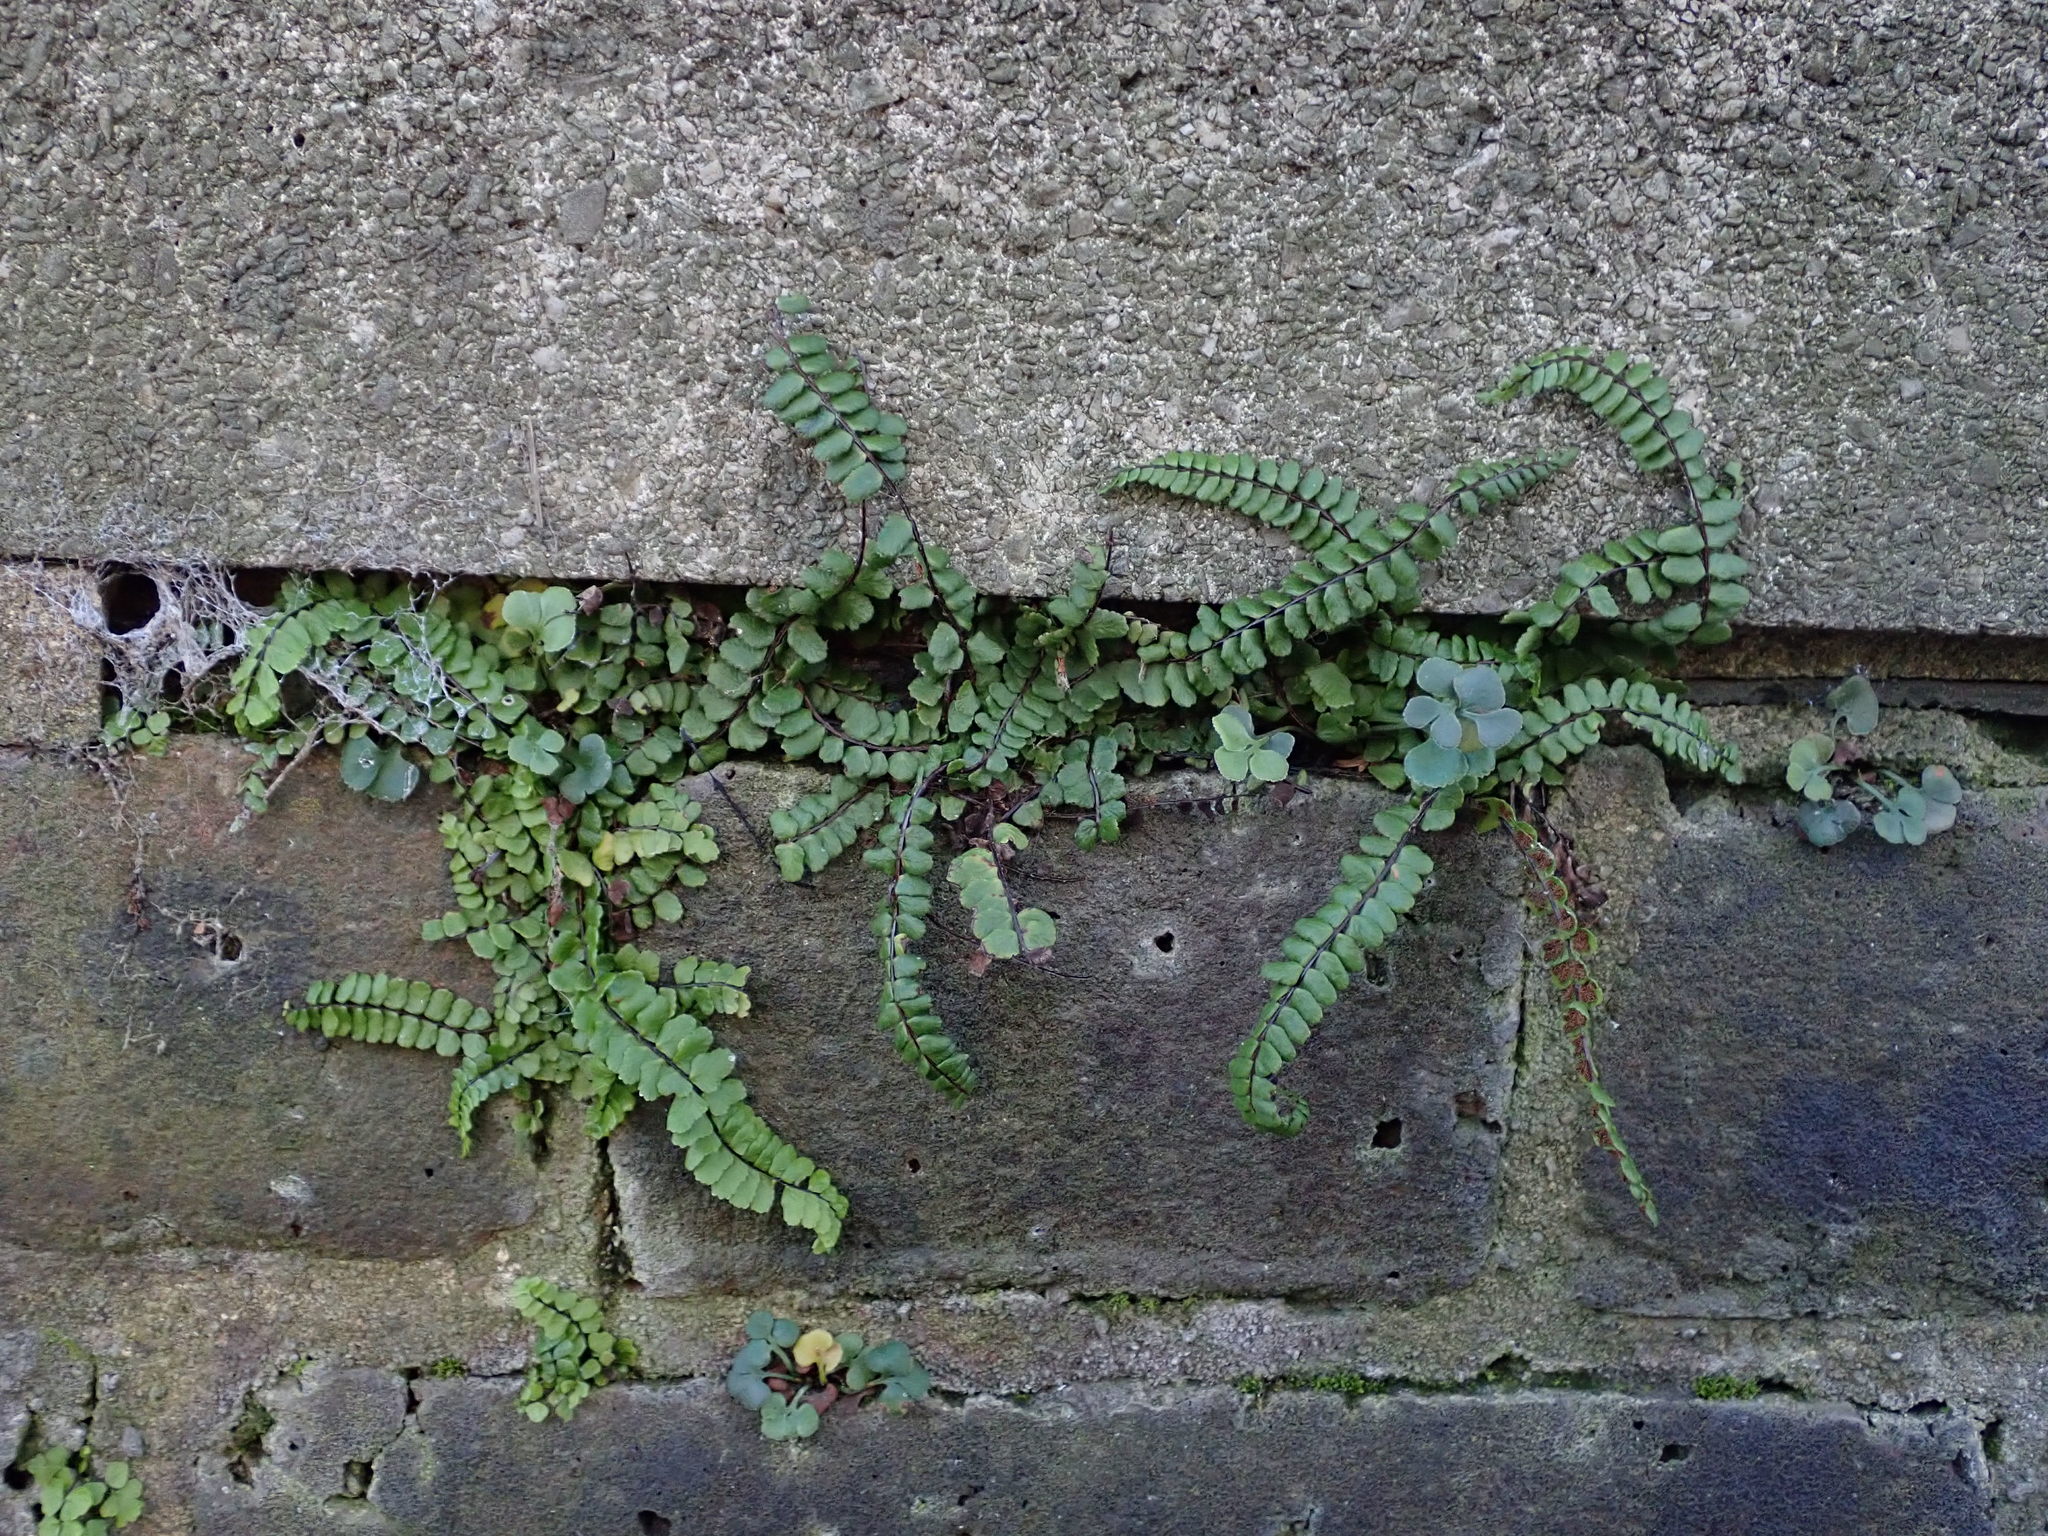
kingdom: Plantae
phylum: Tracheophyta
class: Polypodiopsida
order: Polypodiales
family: Aspleniaceae
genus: Asplenium
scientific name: Asplenium trichomanes
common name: Maidenhair spleenwort
